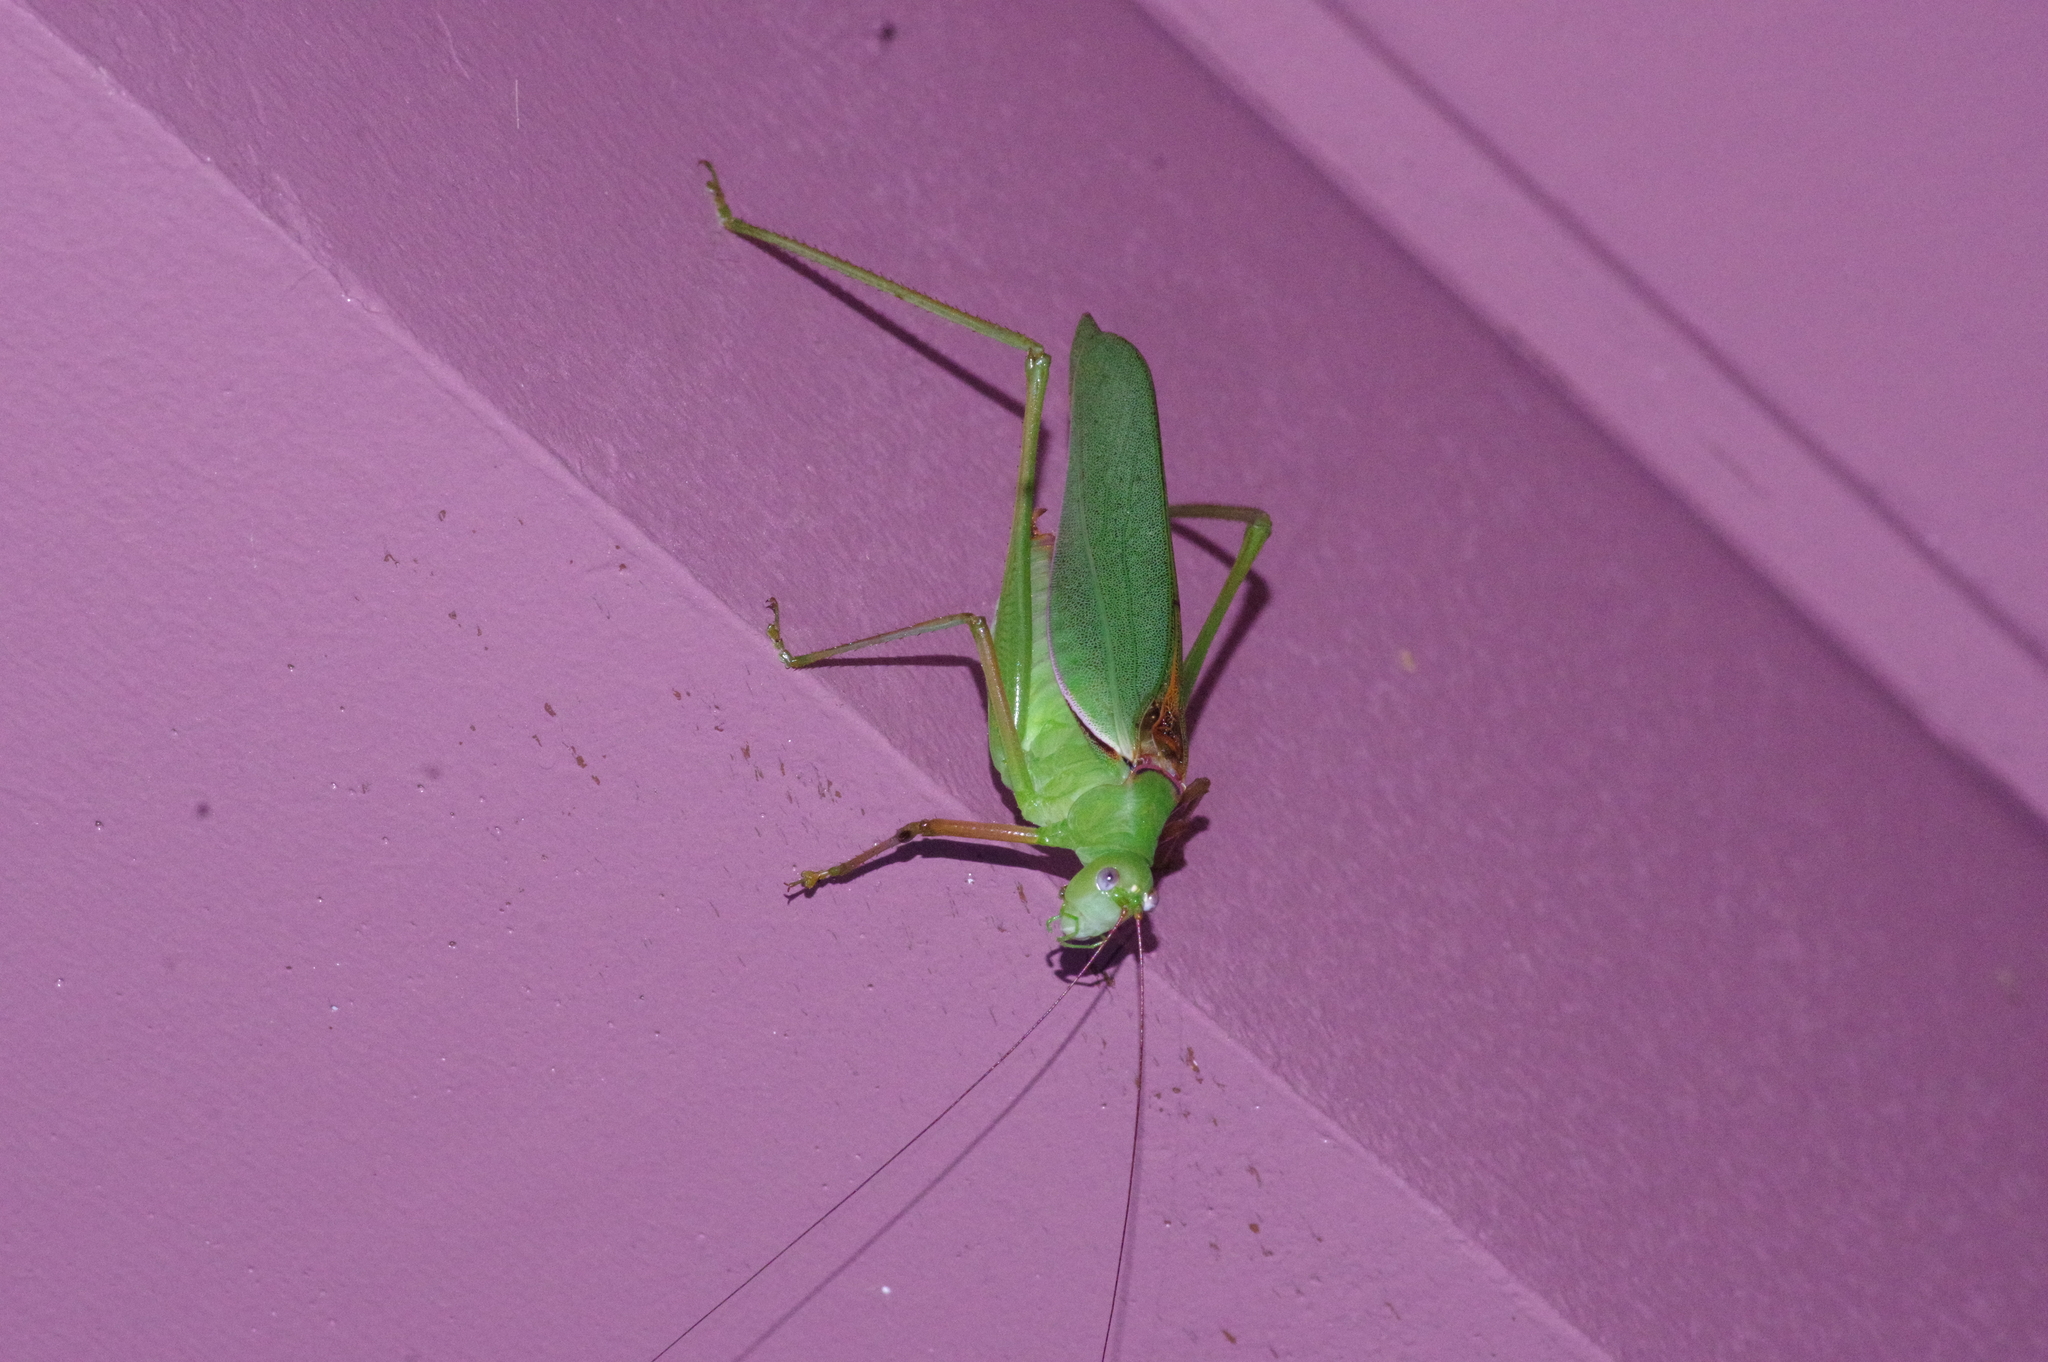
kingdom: Animalia
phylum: Arthropoda
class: Insecta
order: Orthoptera
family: Tettigoniidae
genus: Psyrana
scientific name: Psyrana ryukyuensis
